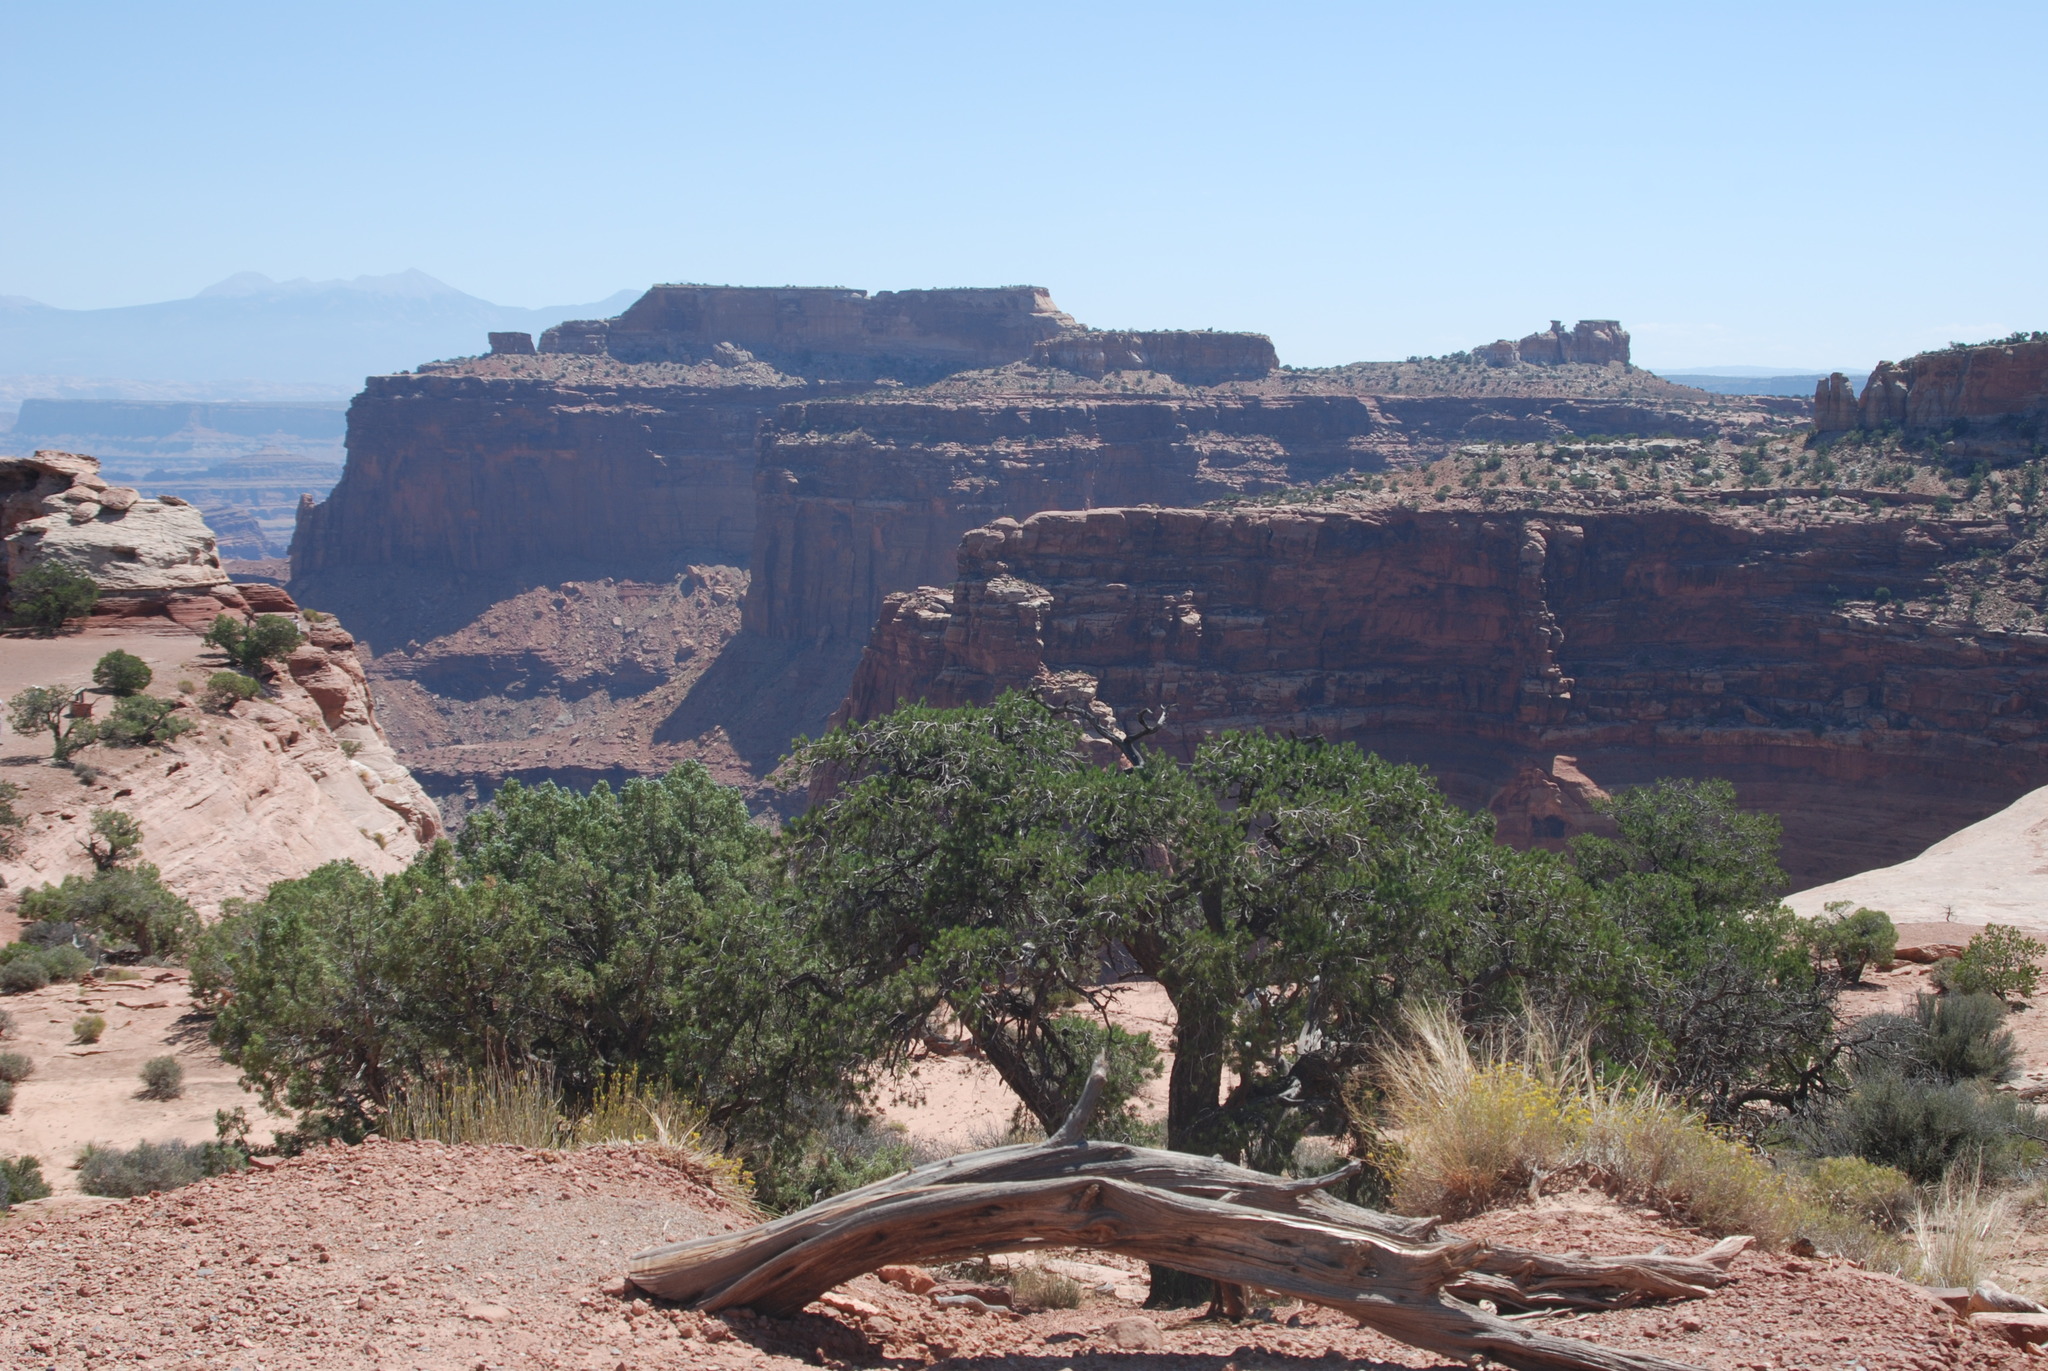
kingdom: Plantae
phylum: Tracheophyta
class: Pinopsida
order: Pinales
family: Cupressaceae
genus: Juniperus
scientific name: Juniperus osteosperma
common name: Utah juniper
